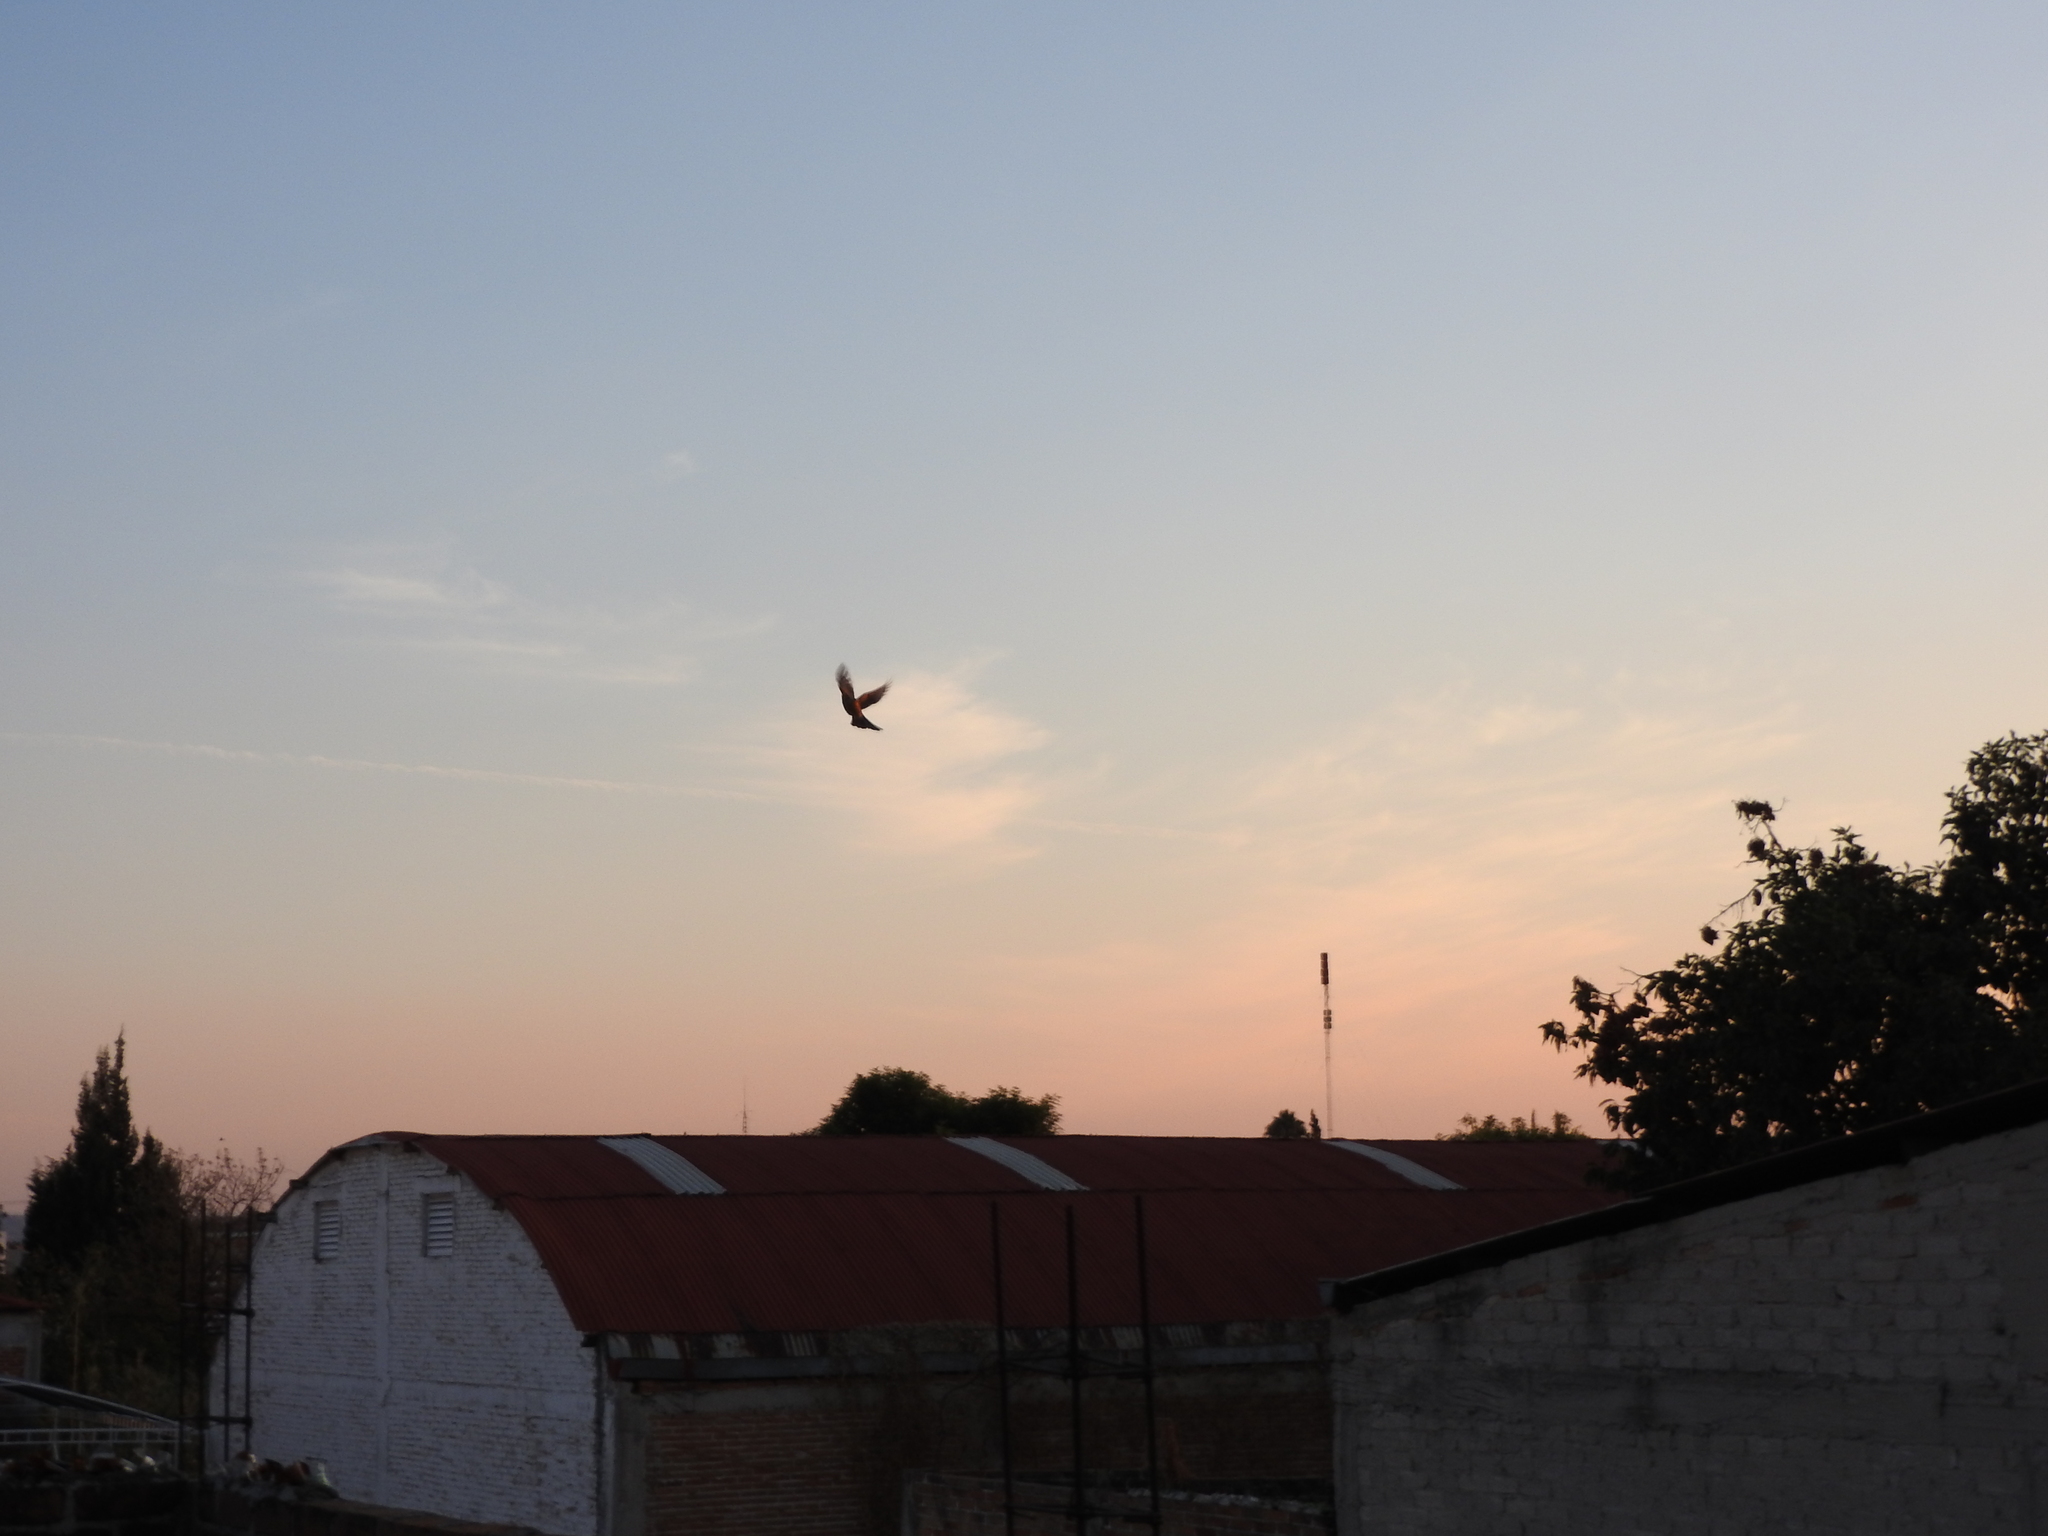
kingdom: Animalia
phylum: Chordata
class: Aves
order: Passeriformes
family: Turdidae
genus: Turdus
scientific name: Turdus rufopalliatus
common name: Rufous-backed robin
